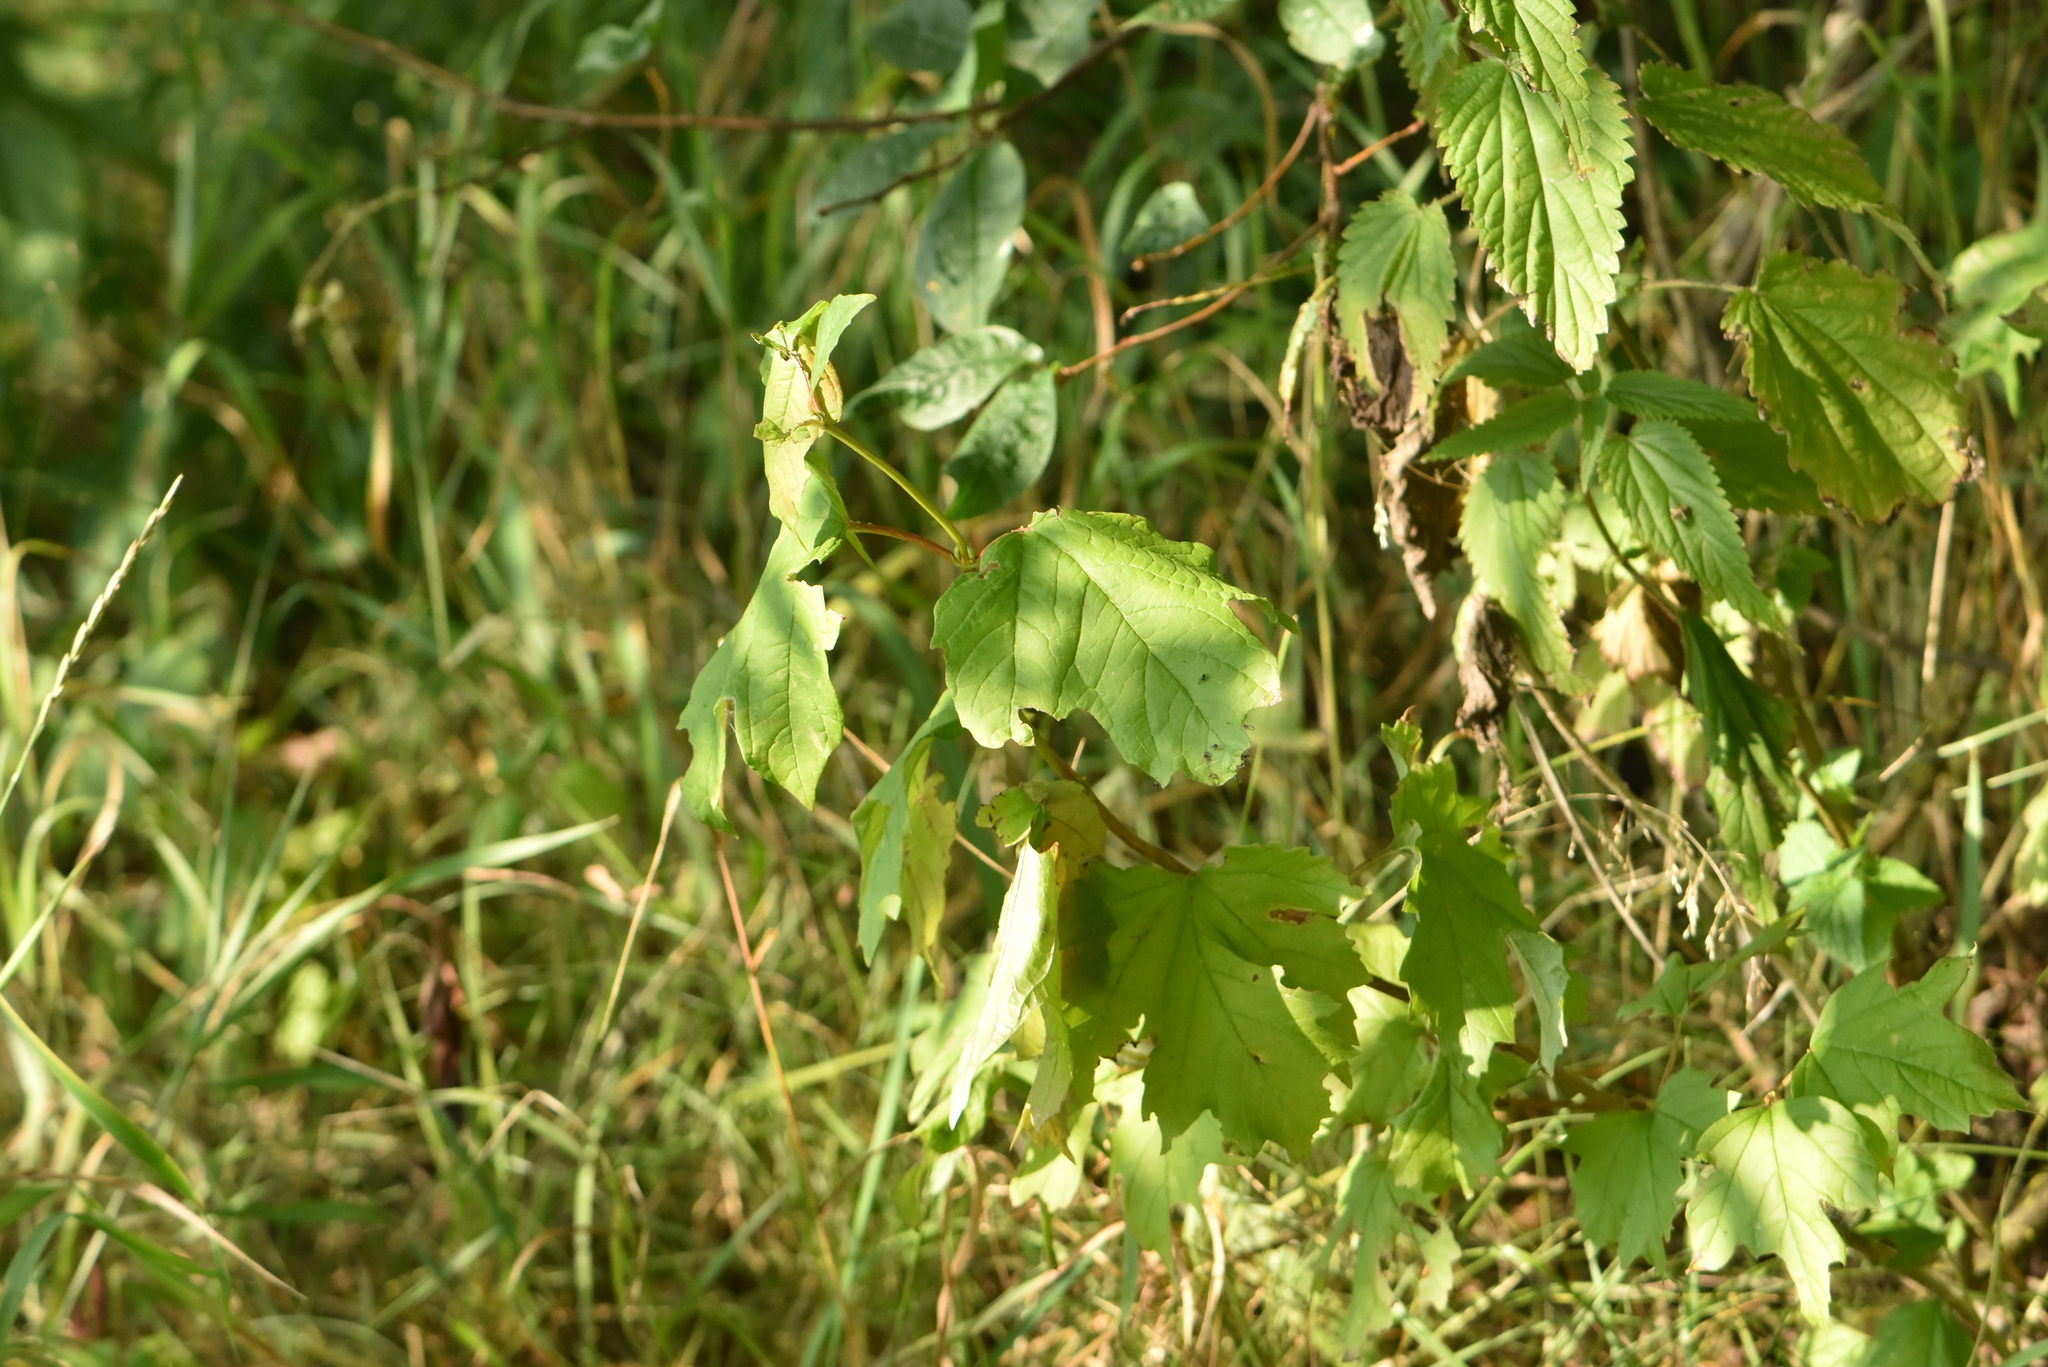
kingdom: Plantae
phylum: Tracheophyta
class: Magnoliopsida
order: Dipsacales
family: Viburnaceae
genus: Viburnum
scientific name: Viburnum opulus
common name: Guelder-rose
